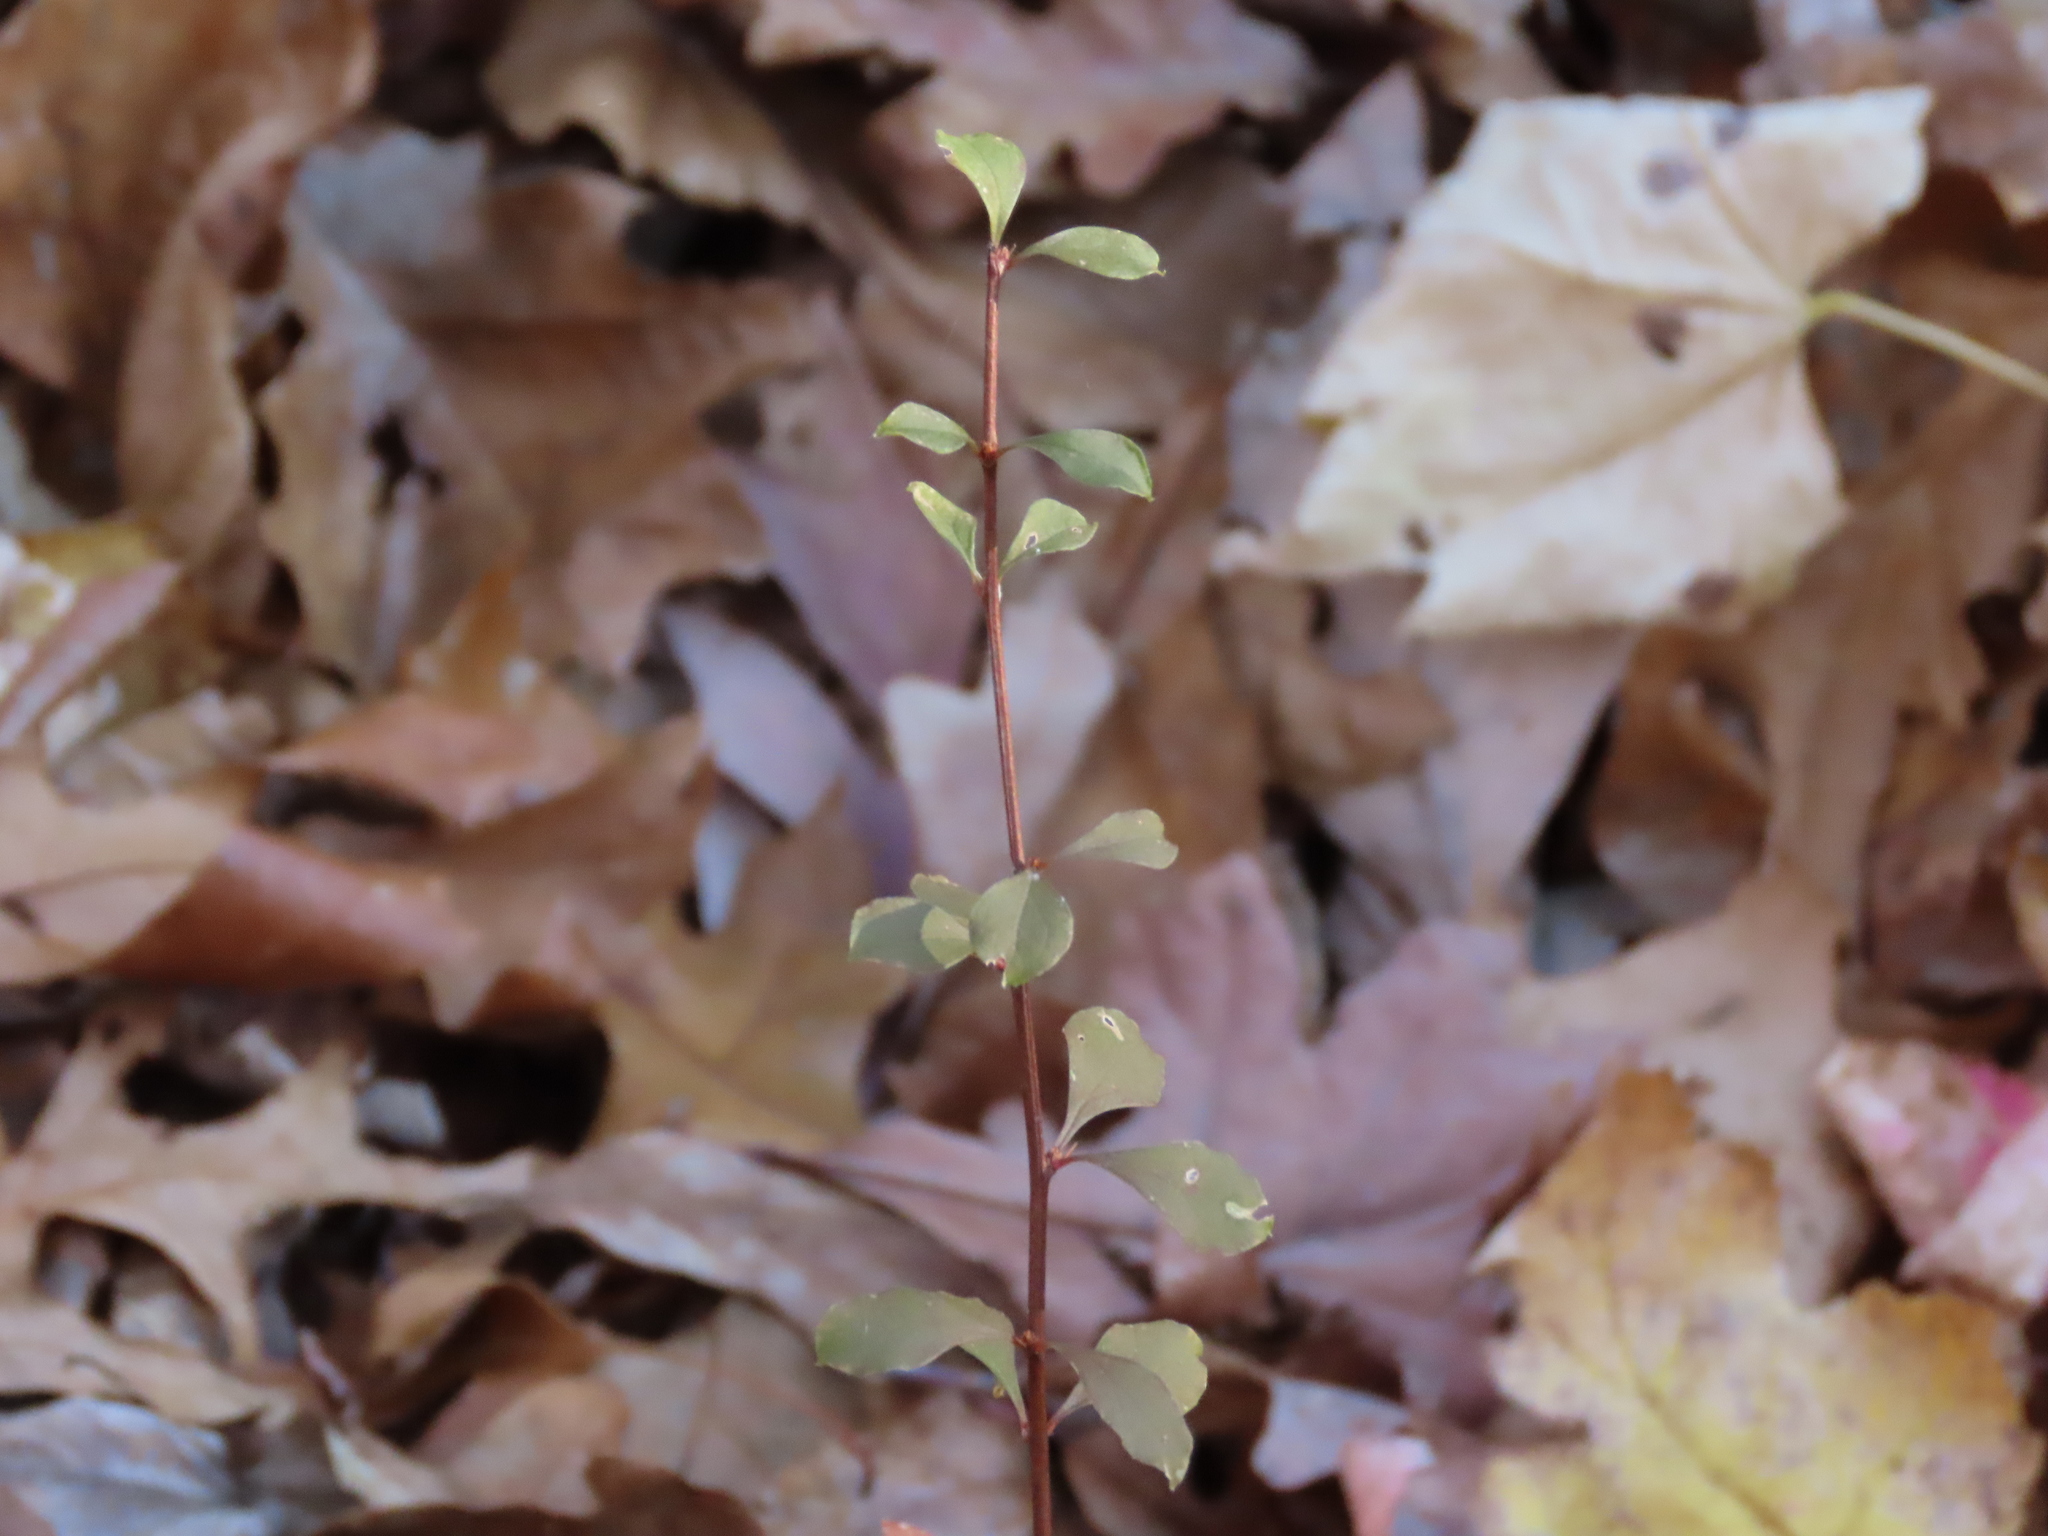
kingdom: Plantae
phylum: Tracheophyta
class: Magnoliopsida
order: Ranunculales
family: Berberidaceae
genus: Berberis
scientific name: Berberis thunbergii
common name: Japanese barberry
